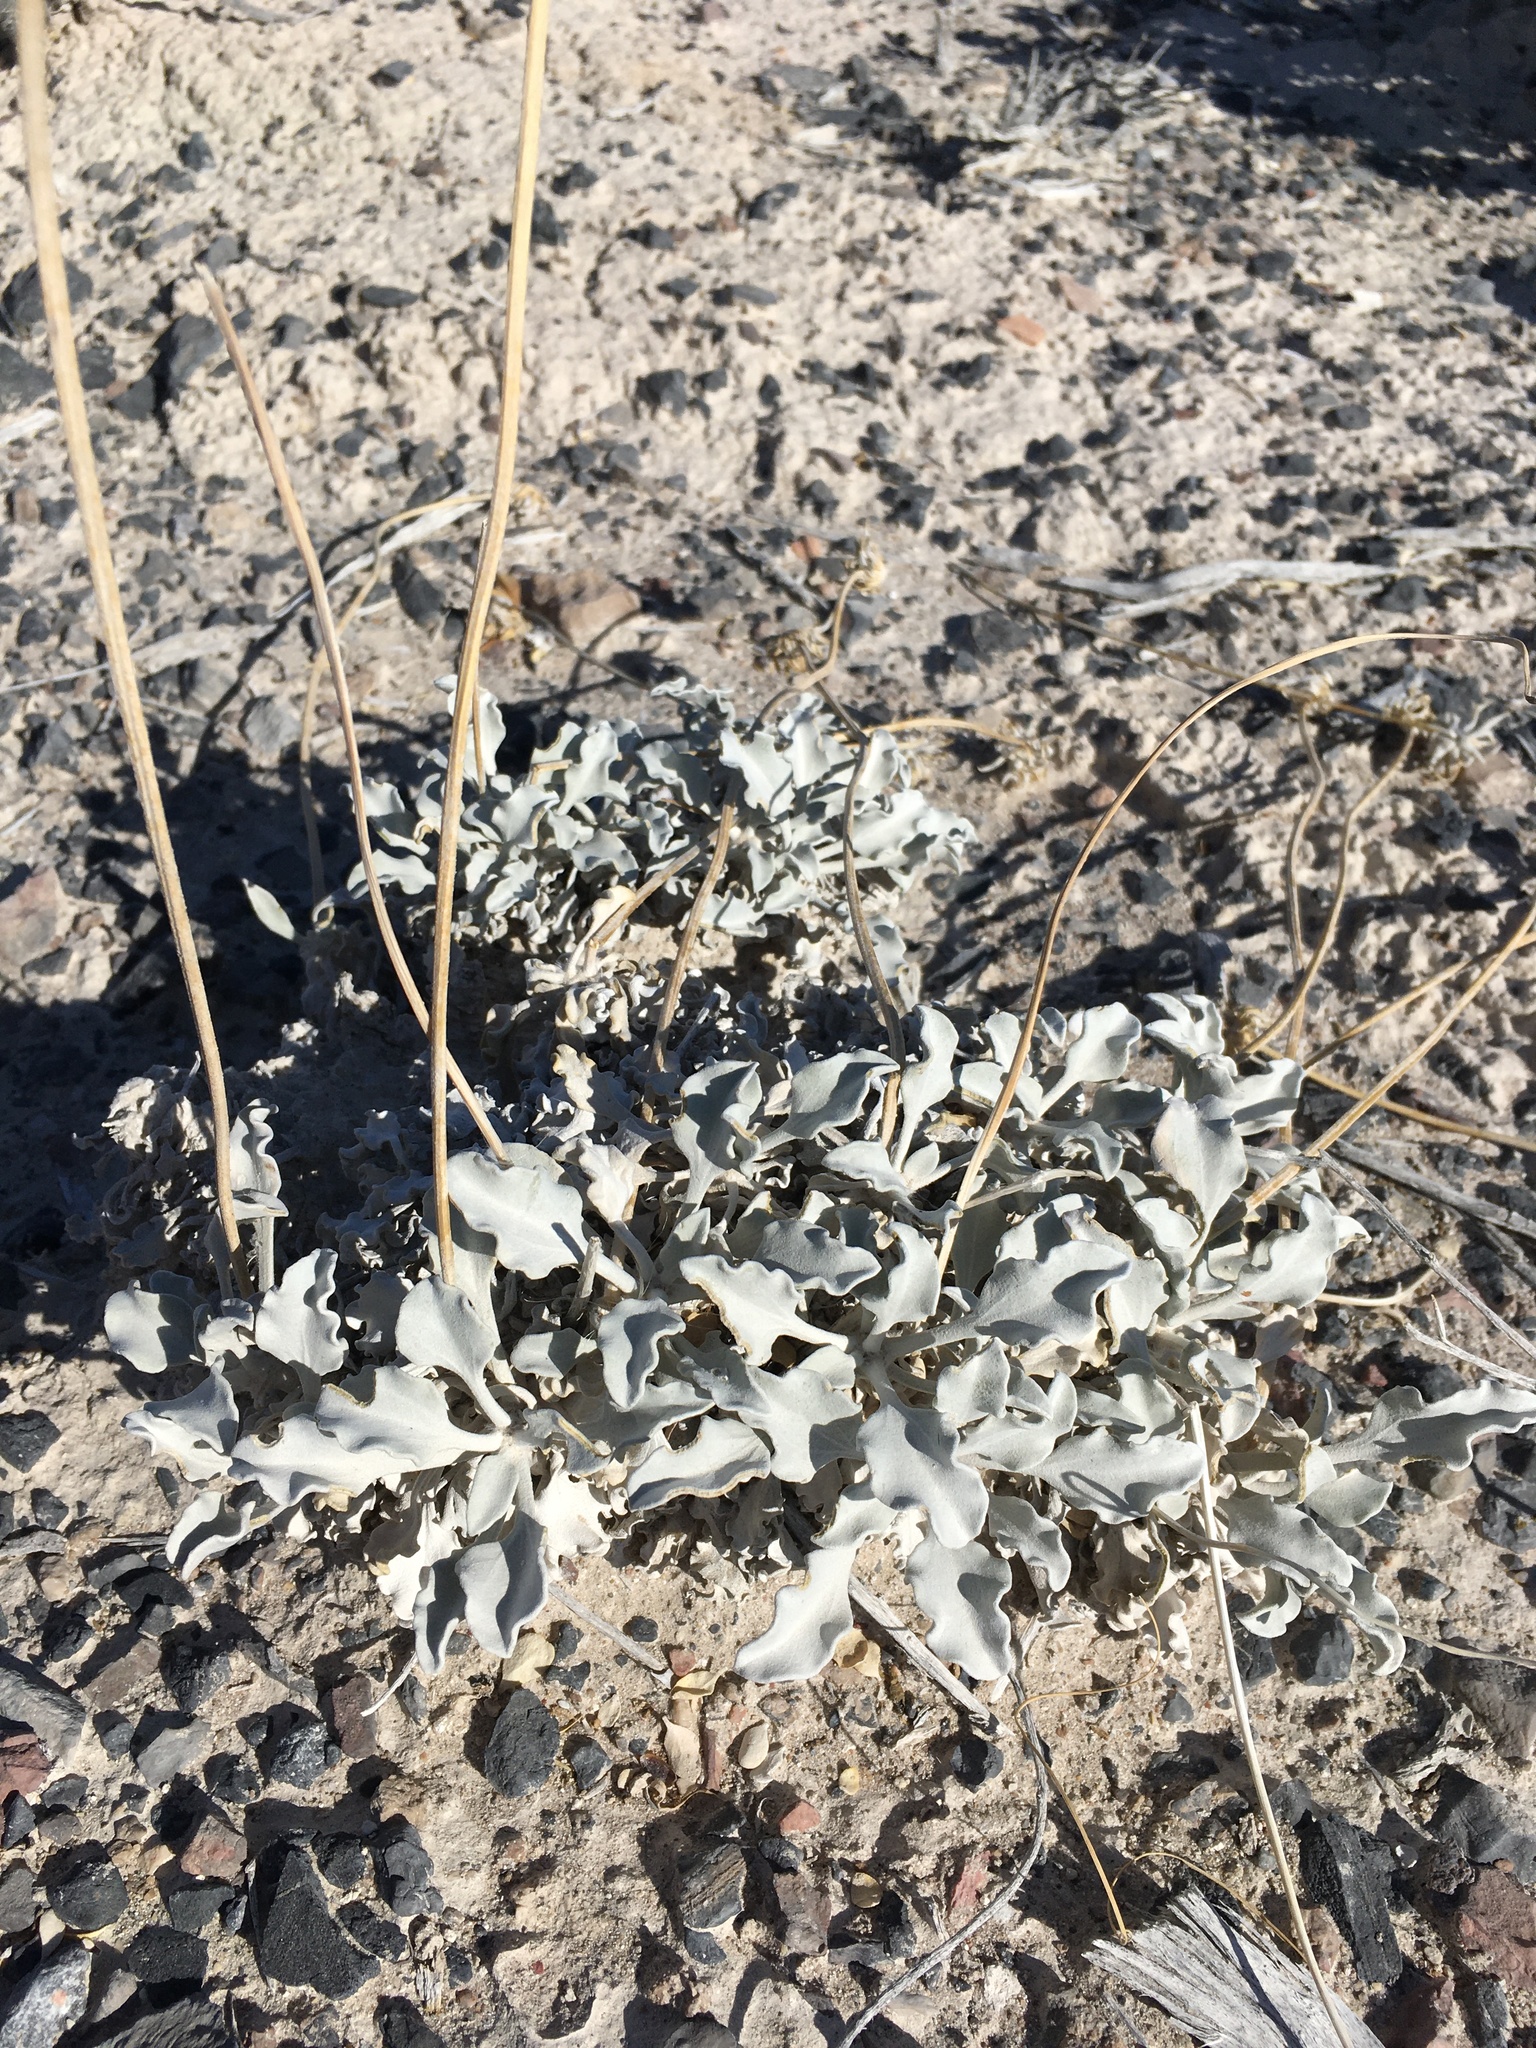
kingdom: Plantae
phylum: Tracheophyta
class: Magnoliopsida
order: Asterales
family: Asteraceae
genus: Enceliopsis
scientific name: Enceliopsis nudicaulis
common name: Naked-stem daisy
